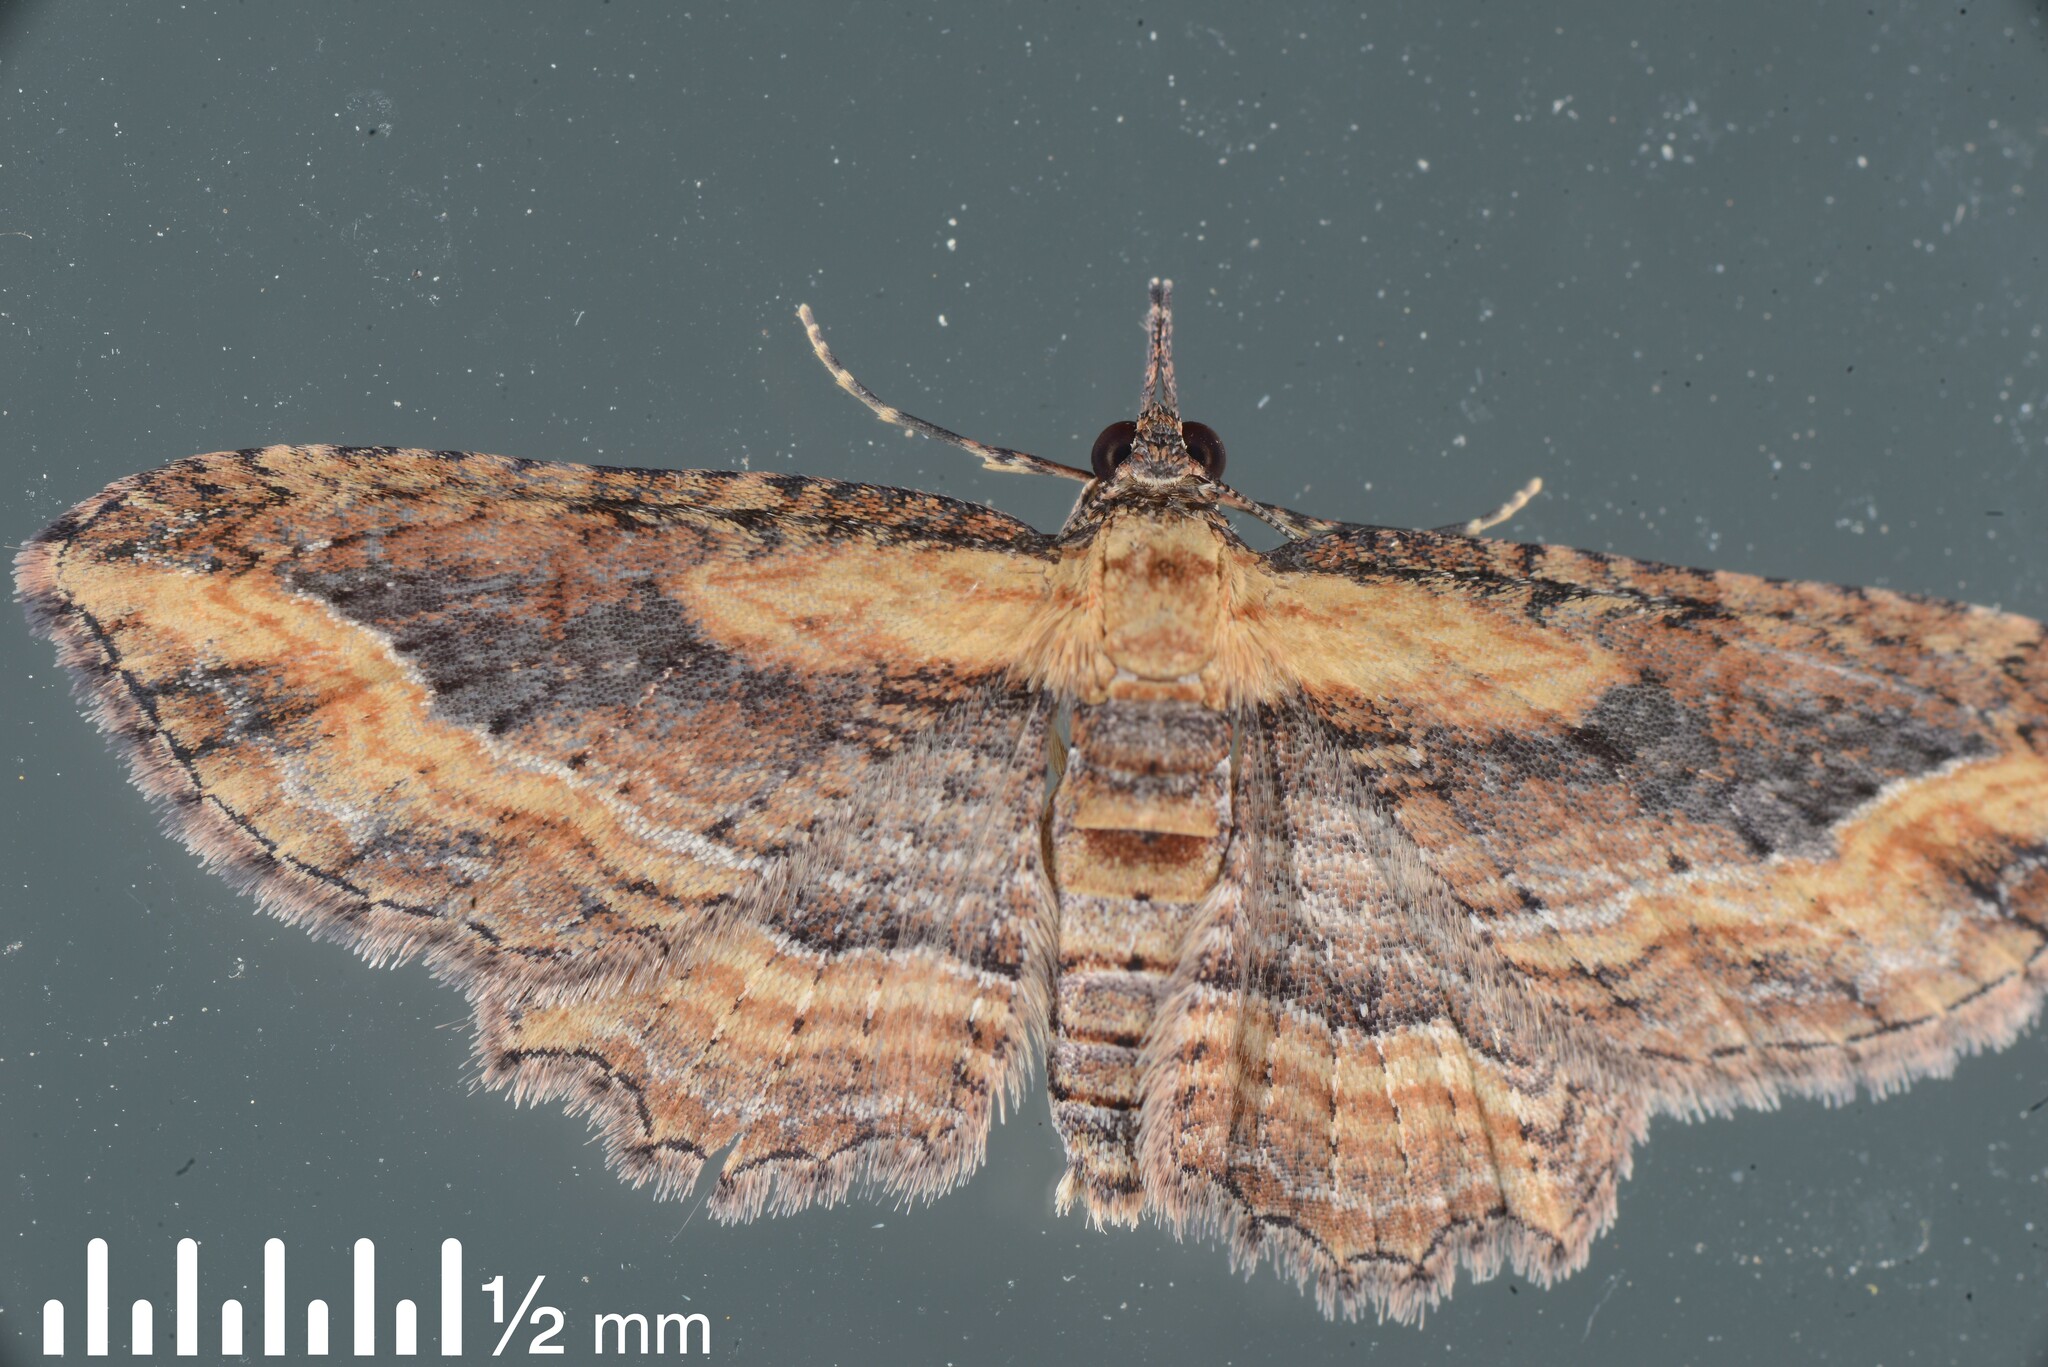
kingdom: Animalia
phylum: Arthropoda
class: Insecta
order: Lepidoptera
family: Geometridae
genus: Chloroclystis
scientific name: Chloroclystis filata
